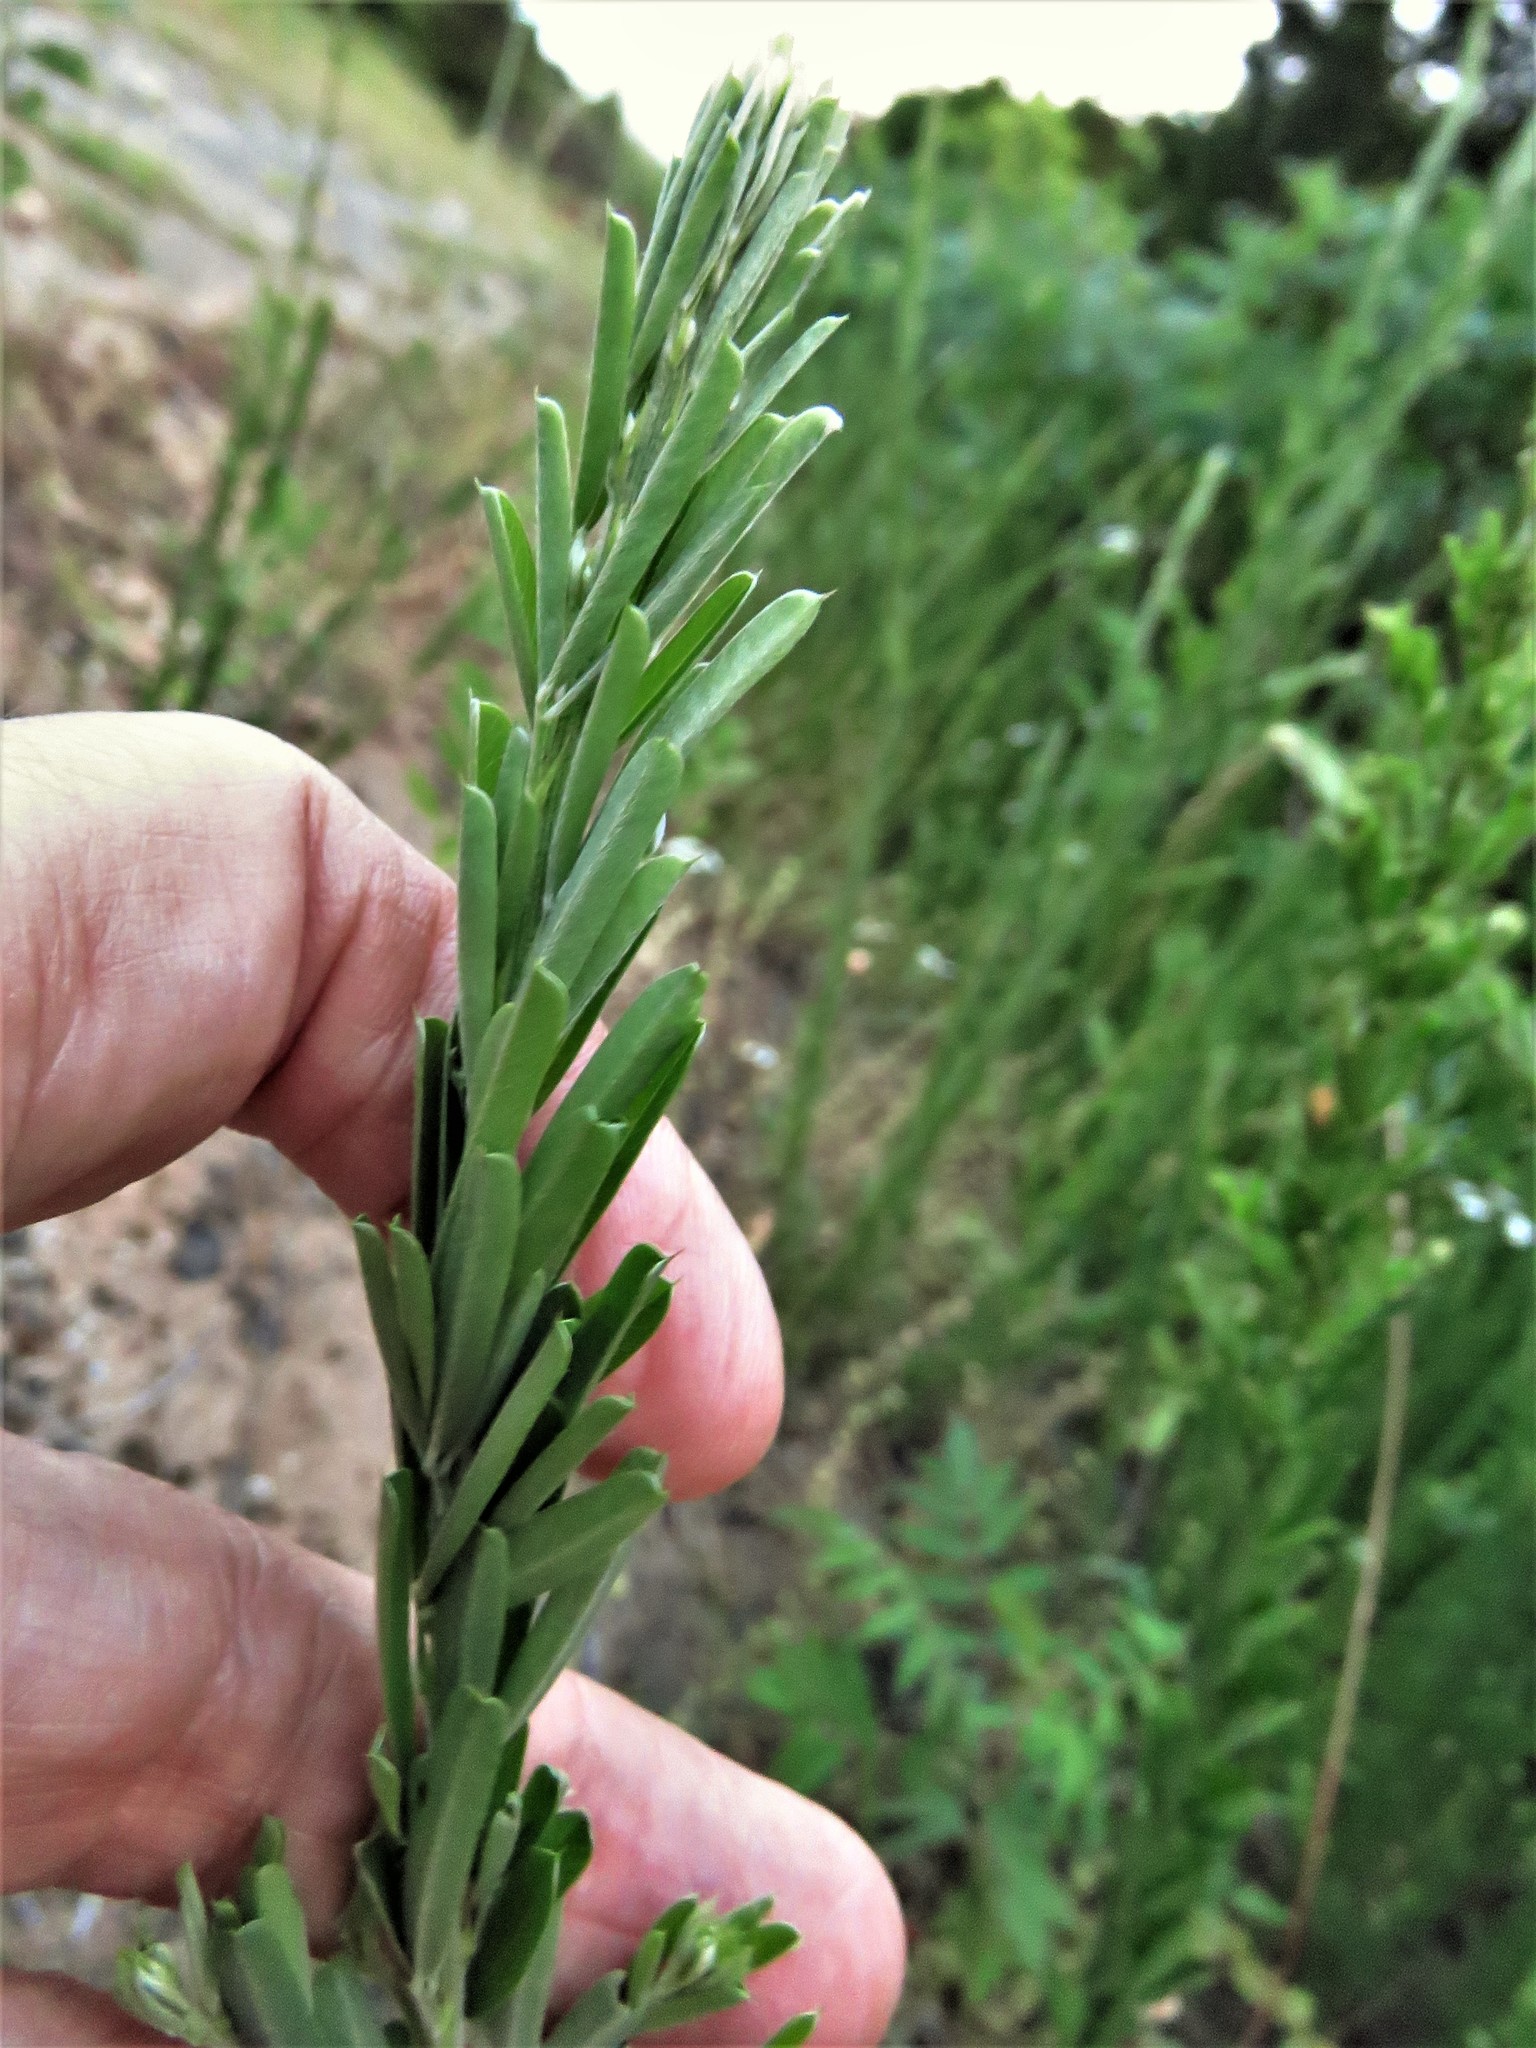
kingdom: Plantae
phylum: Tracheophyta
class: Magnoliopsida
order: Fabales
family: Fabaceae
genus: Lespedeza
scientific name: Lespedeza cuneata
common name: Chinese bush-clover
